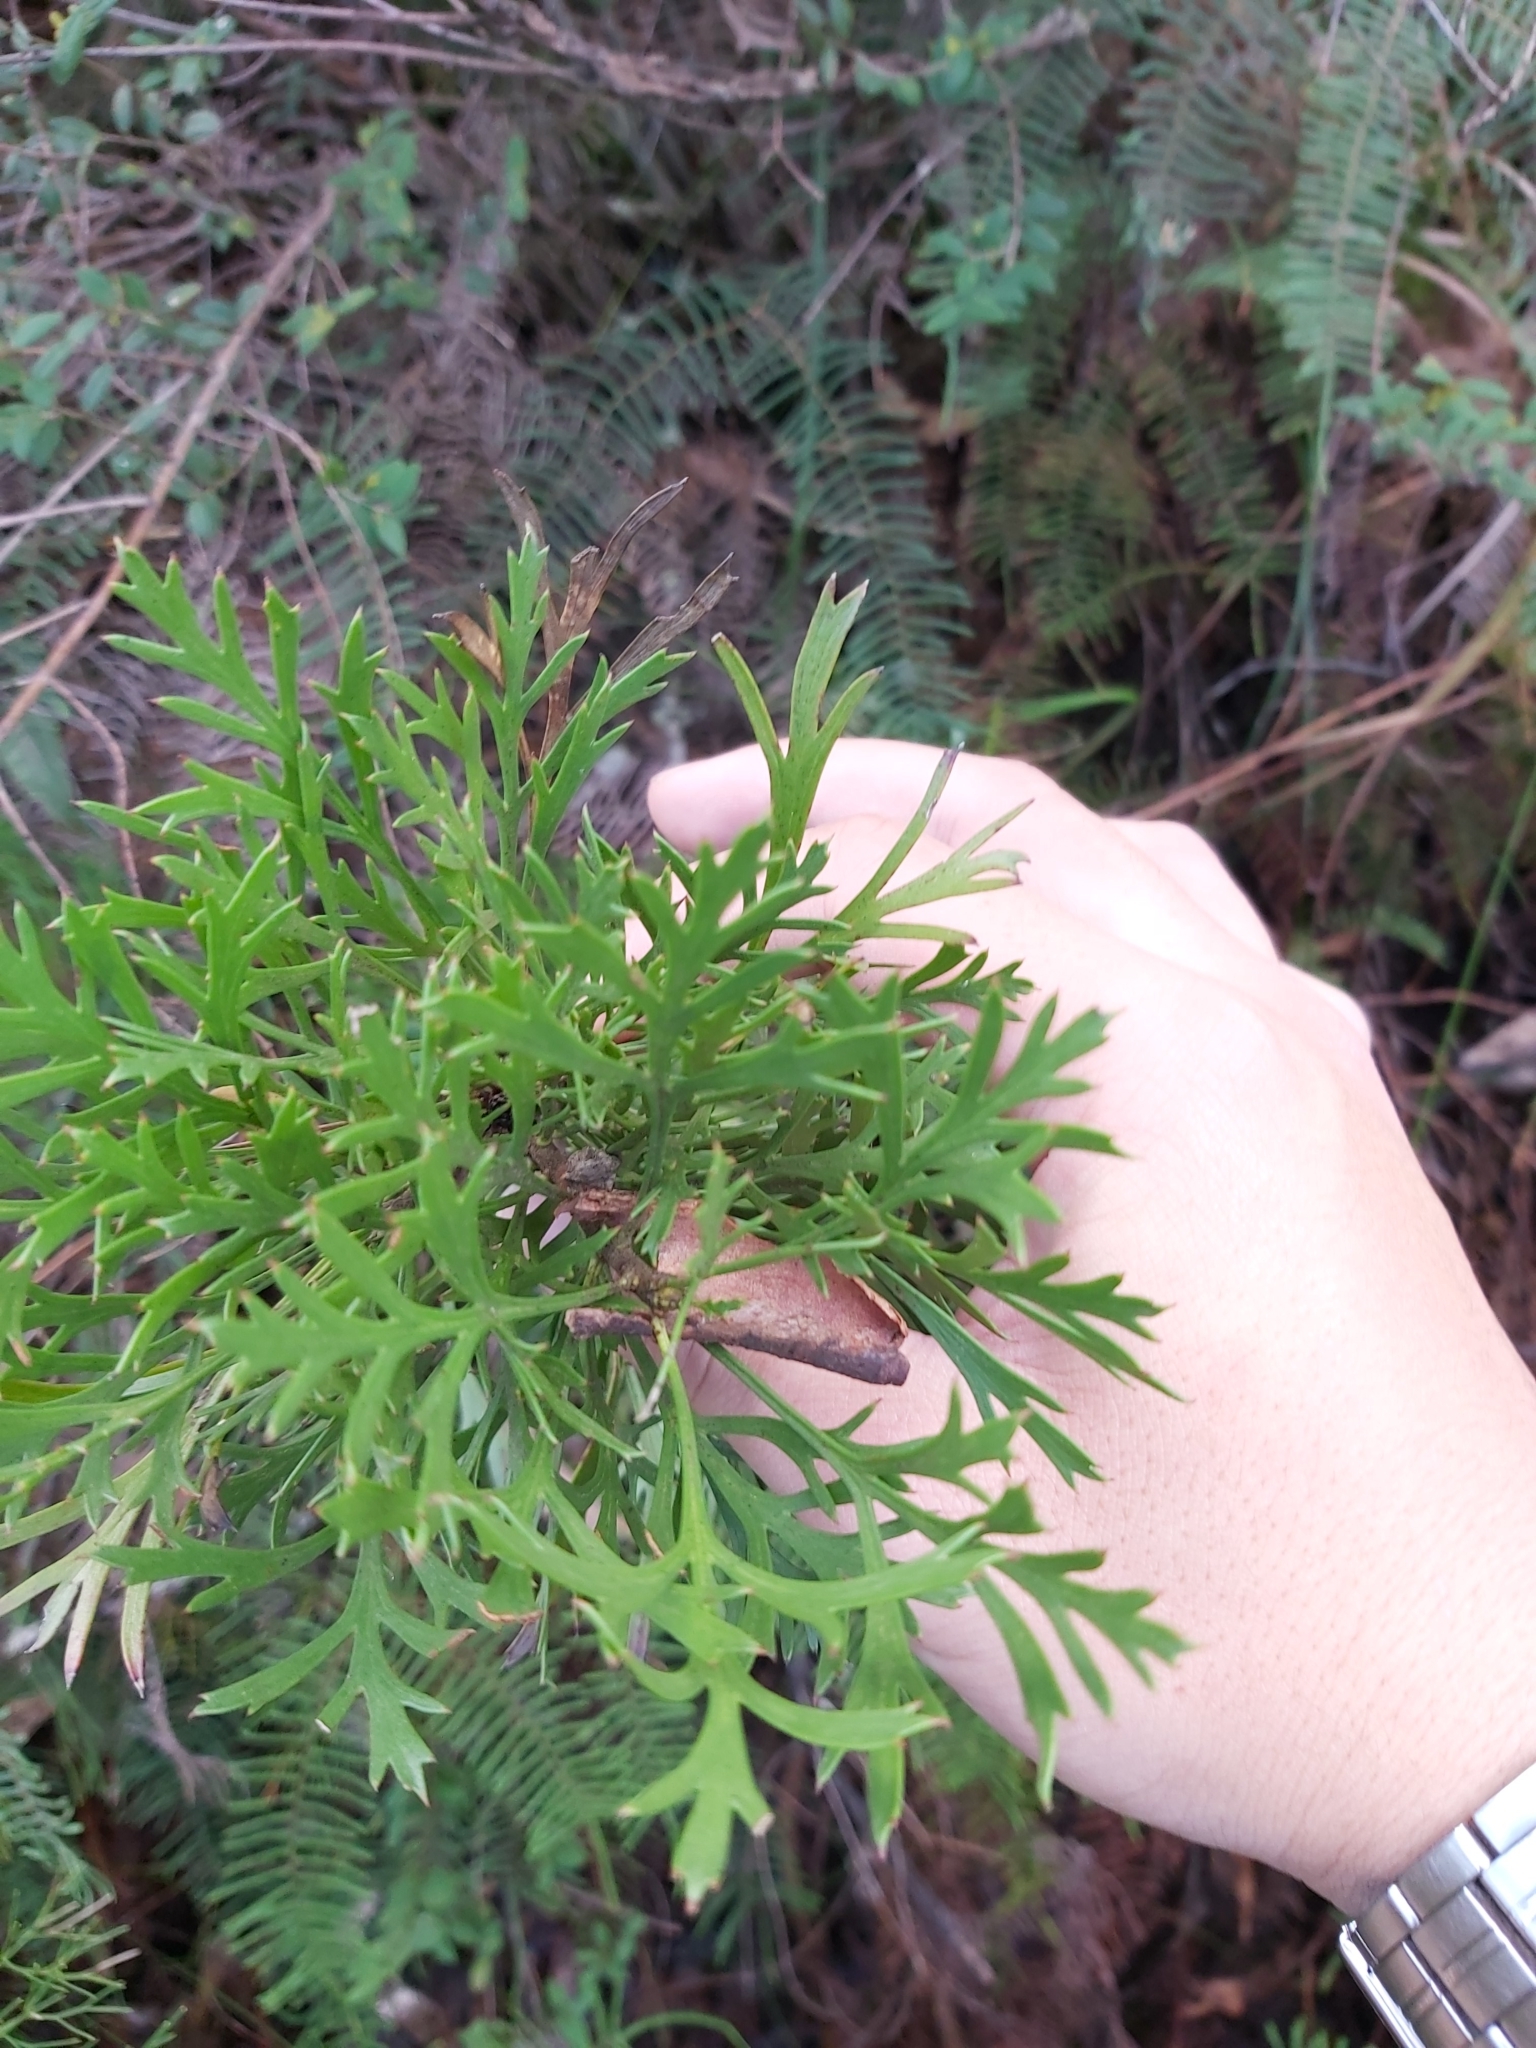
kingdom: Plantae
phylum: Tracheophyta
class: Magnoliopsida
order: Proteales
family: Proteaceae
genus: Isopogon
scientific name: Isopogon anemonifolius
